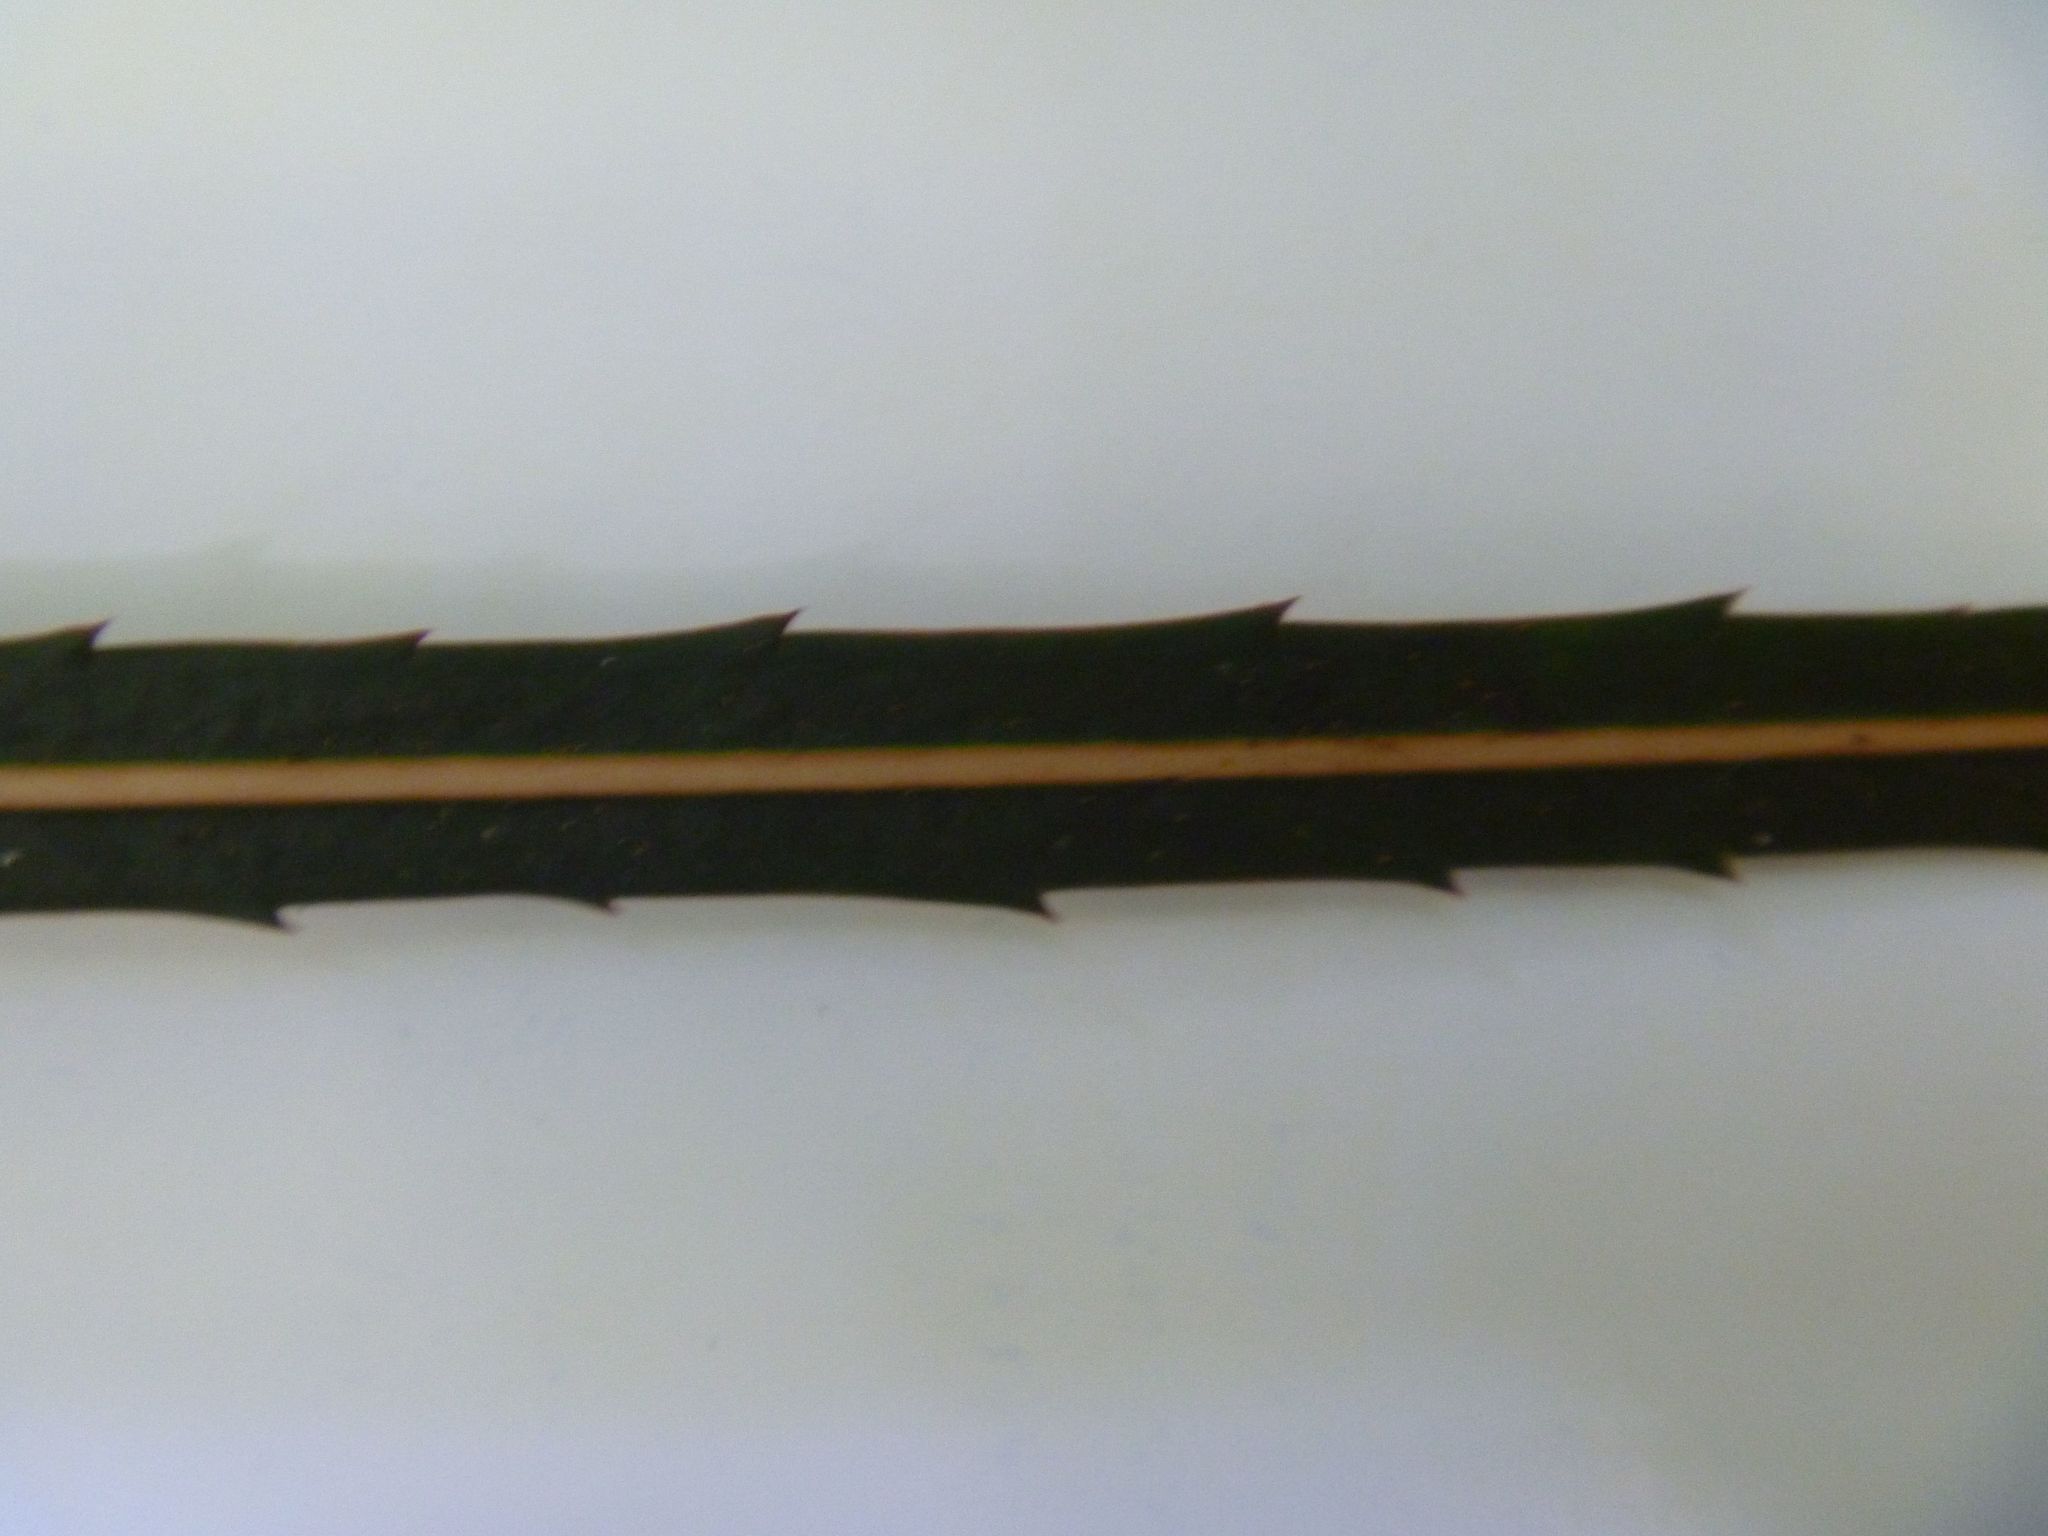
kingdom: Plantae
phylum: Tracheophyta
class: Magnoliopsida
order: Apiales
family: Araliaceae
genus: Pseudopanax
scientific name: Pseudopanax crassifolius
